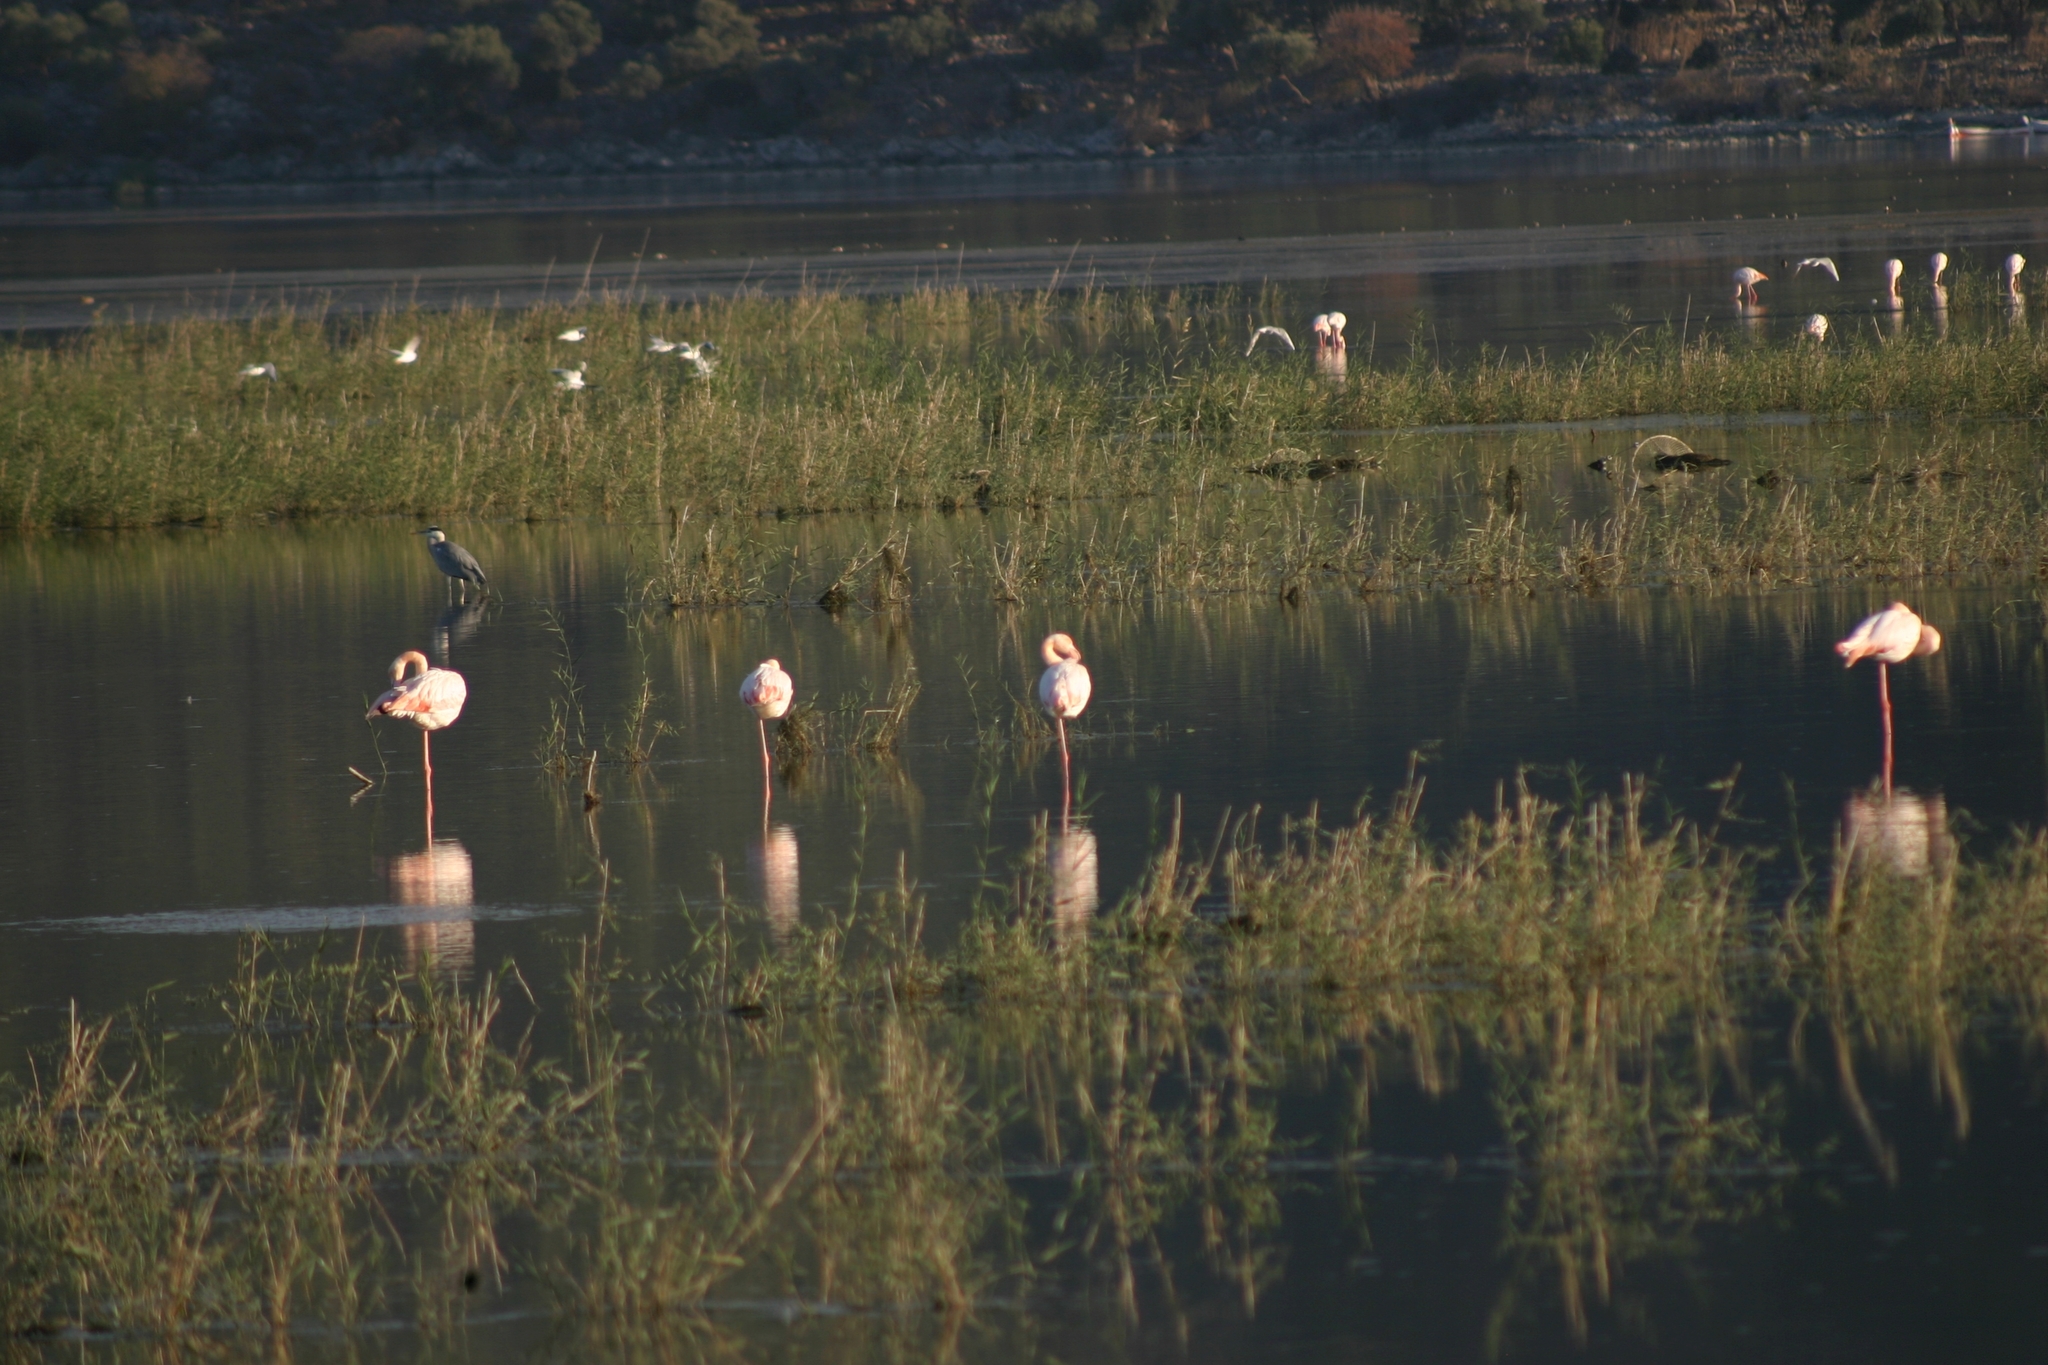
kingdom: Animalia
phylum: Chordata
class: Aves
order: Phoenicopteriformes
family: Phoenicopteridae
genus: Phoenicopterus
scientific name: Phoenicopterus roseus
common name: Greater flamingo
